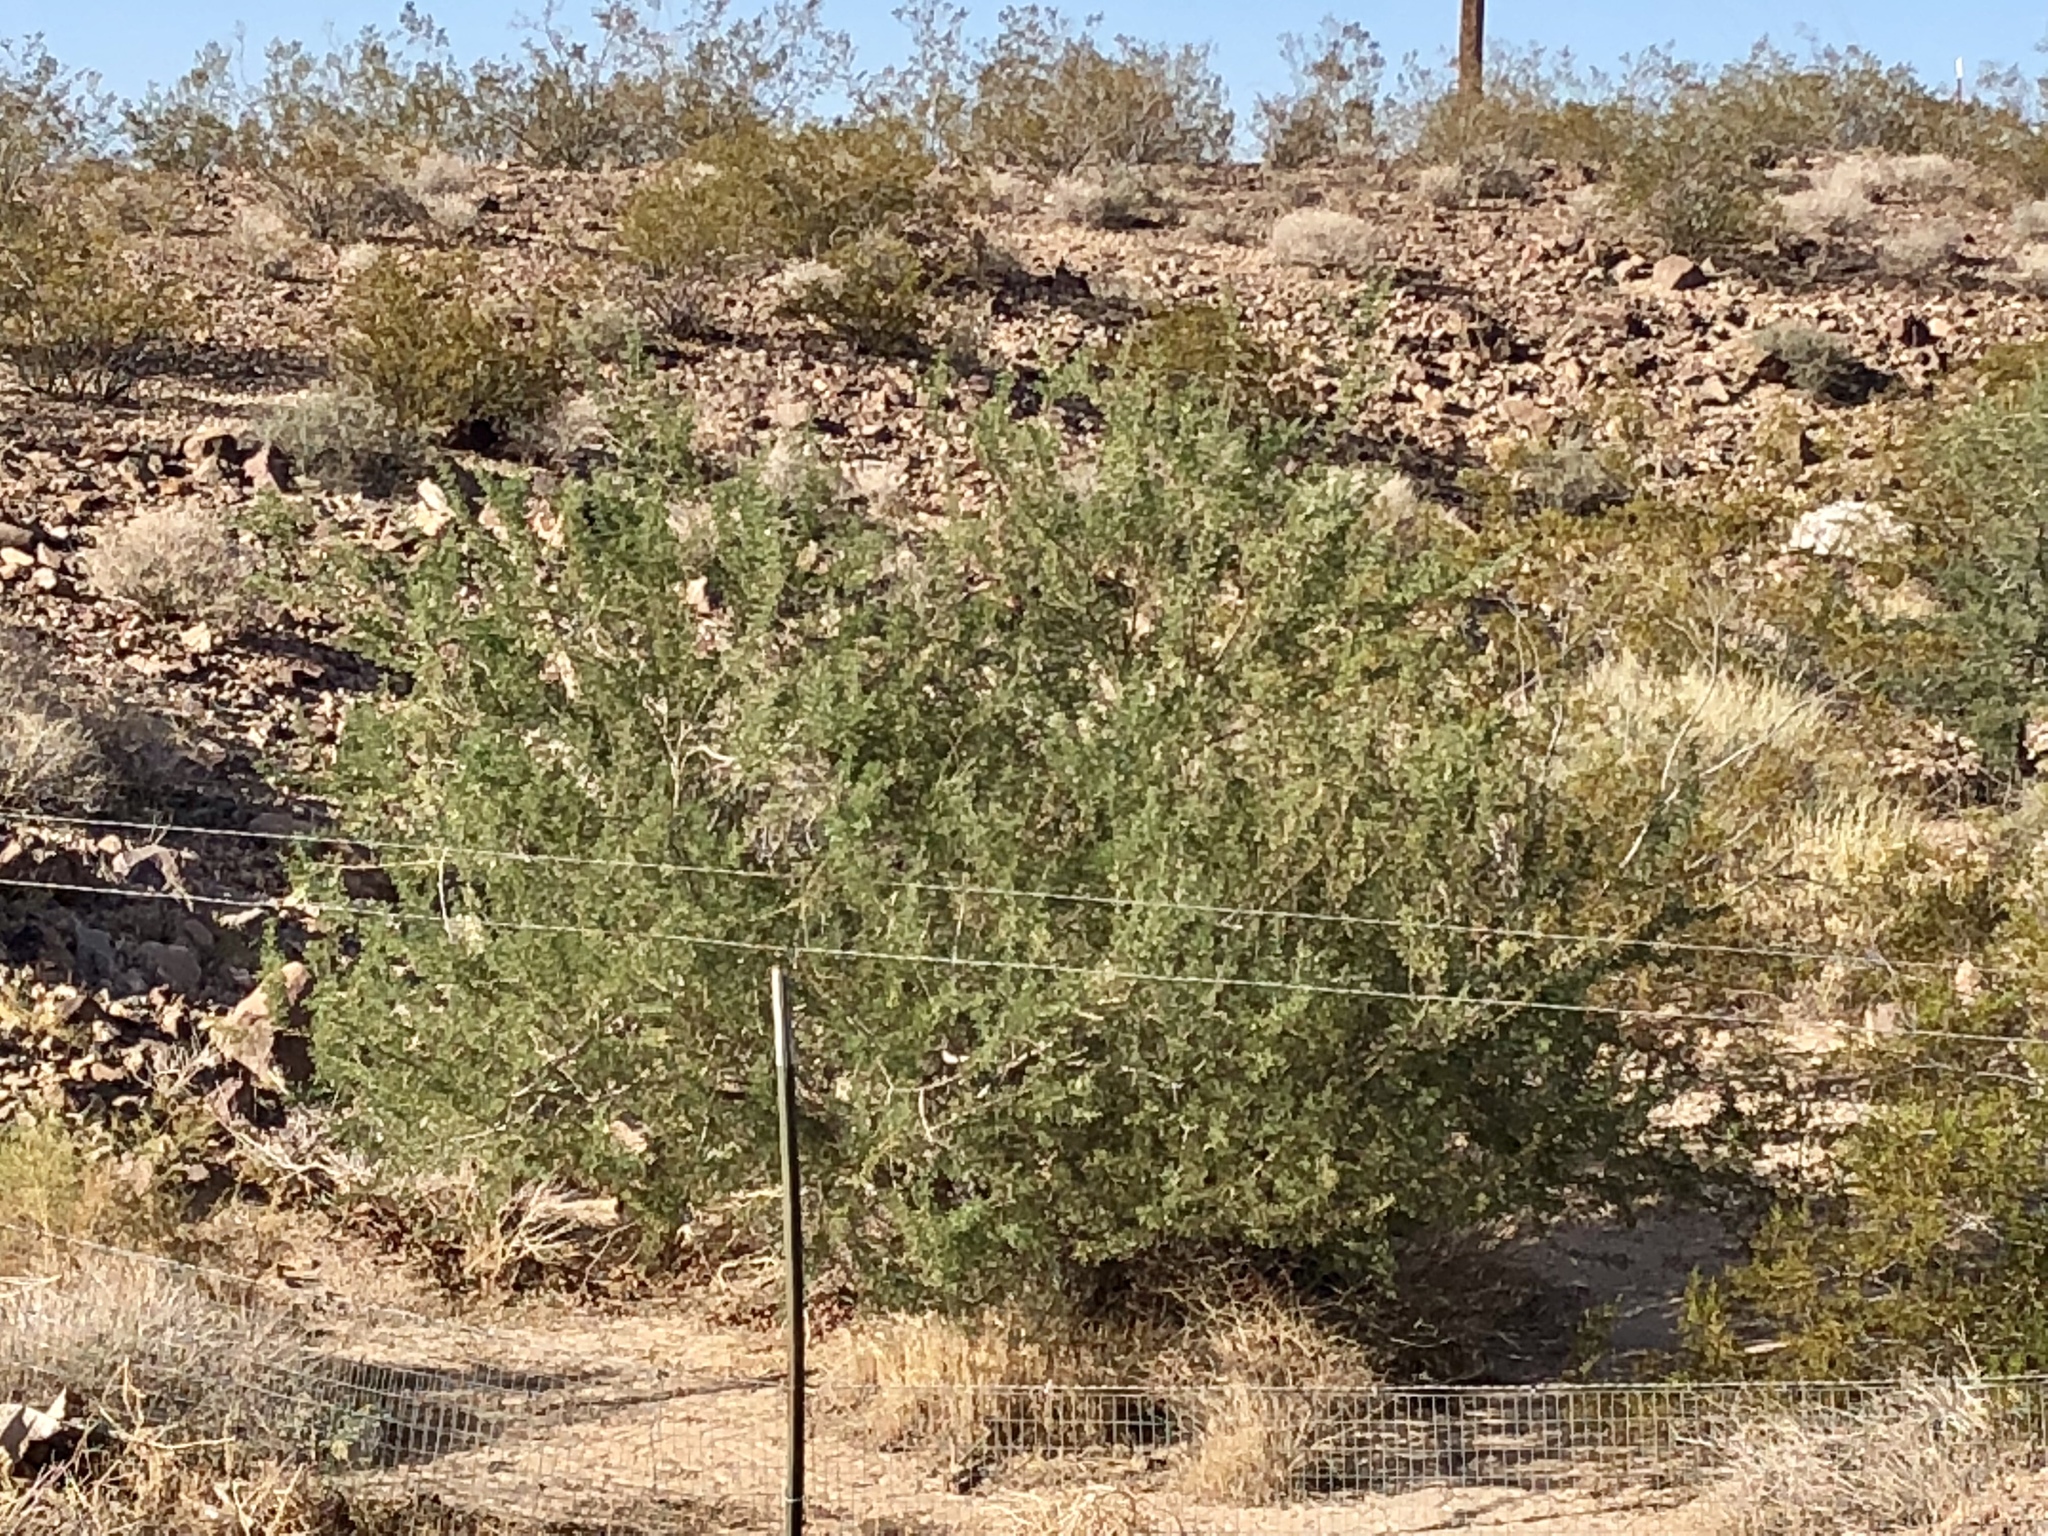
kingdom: Plantae
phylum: Tracheophyta
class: Magnoliopsida
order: Zygophyllales
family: Zygophyllaceae
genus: Larrea
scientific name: Larrea tridentata
